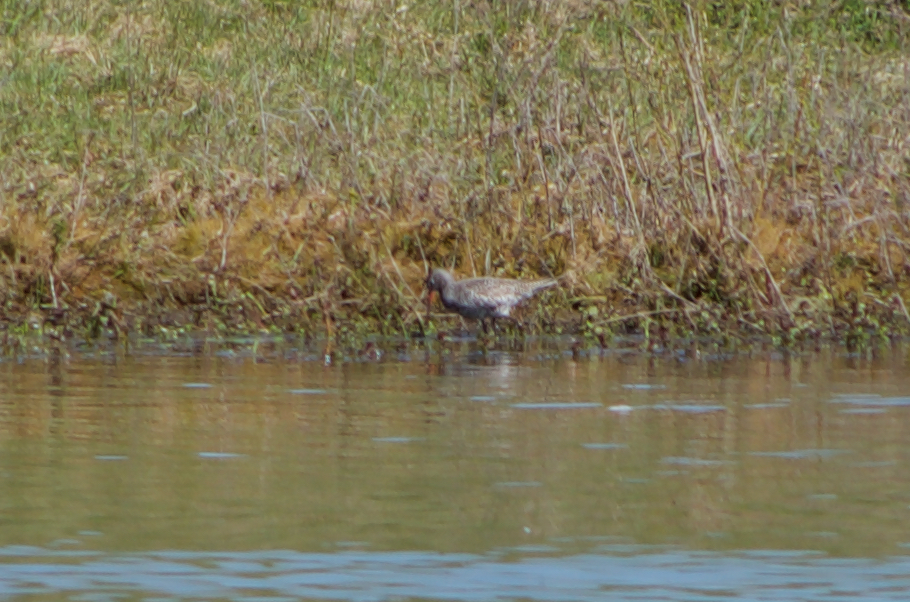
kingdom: Animalia
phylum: Chordata
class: Aves
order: Charadriiformes
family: Scolopacidae
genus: Tringa
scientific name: Tringa erythropus
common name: Spotted redshank
